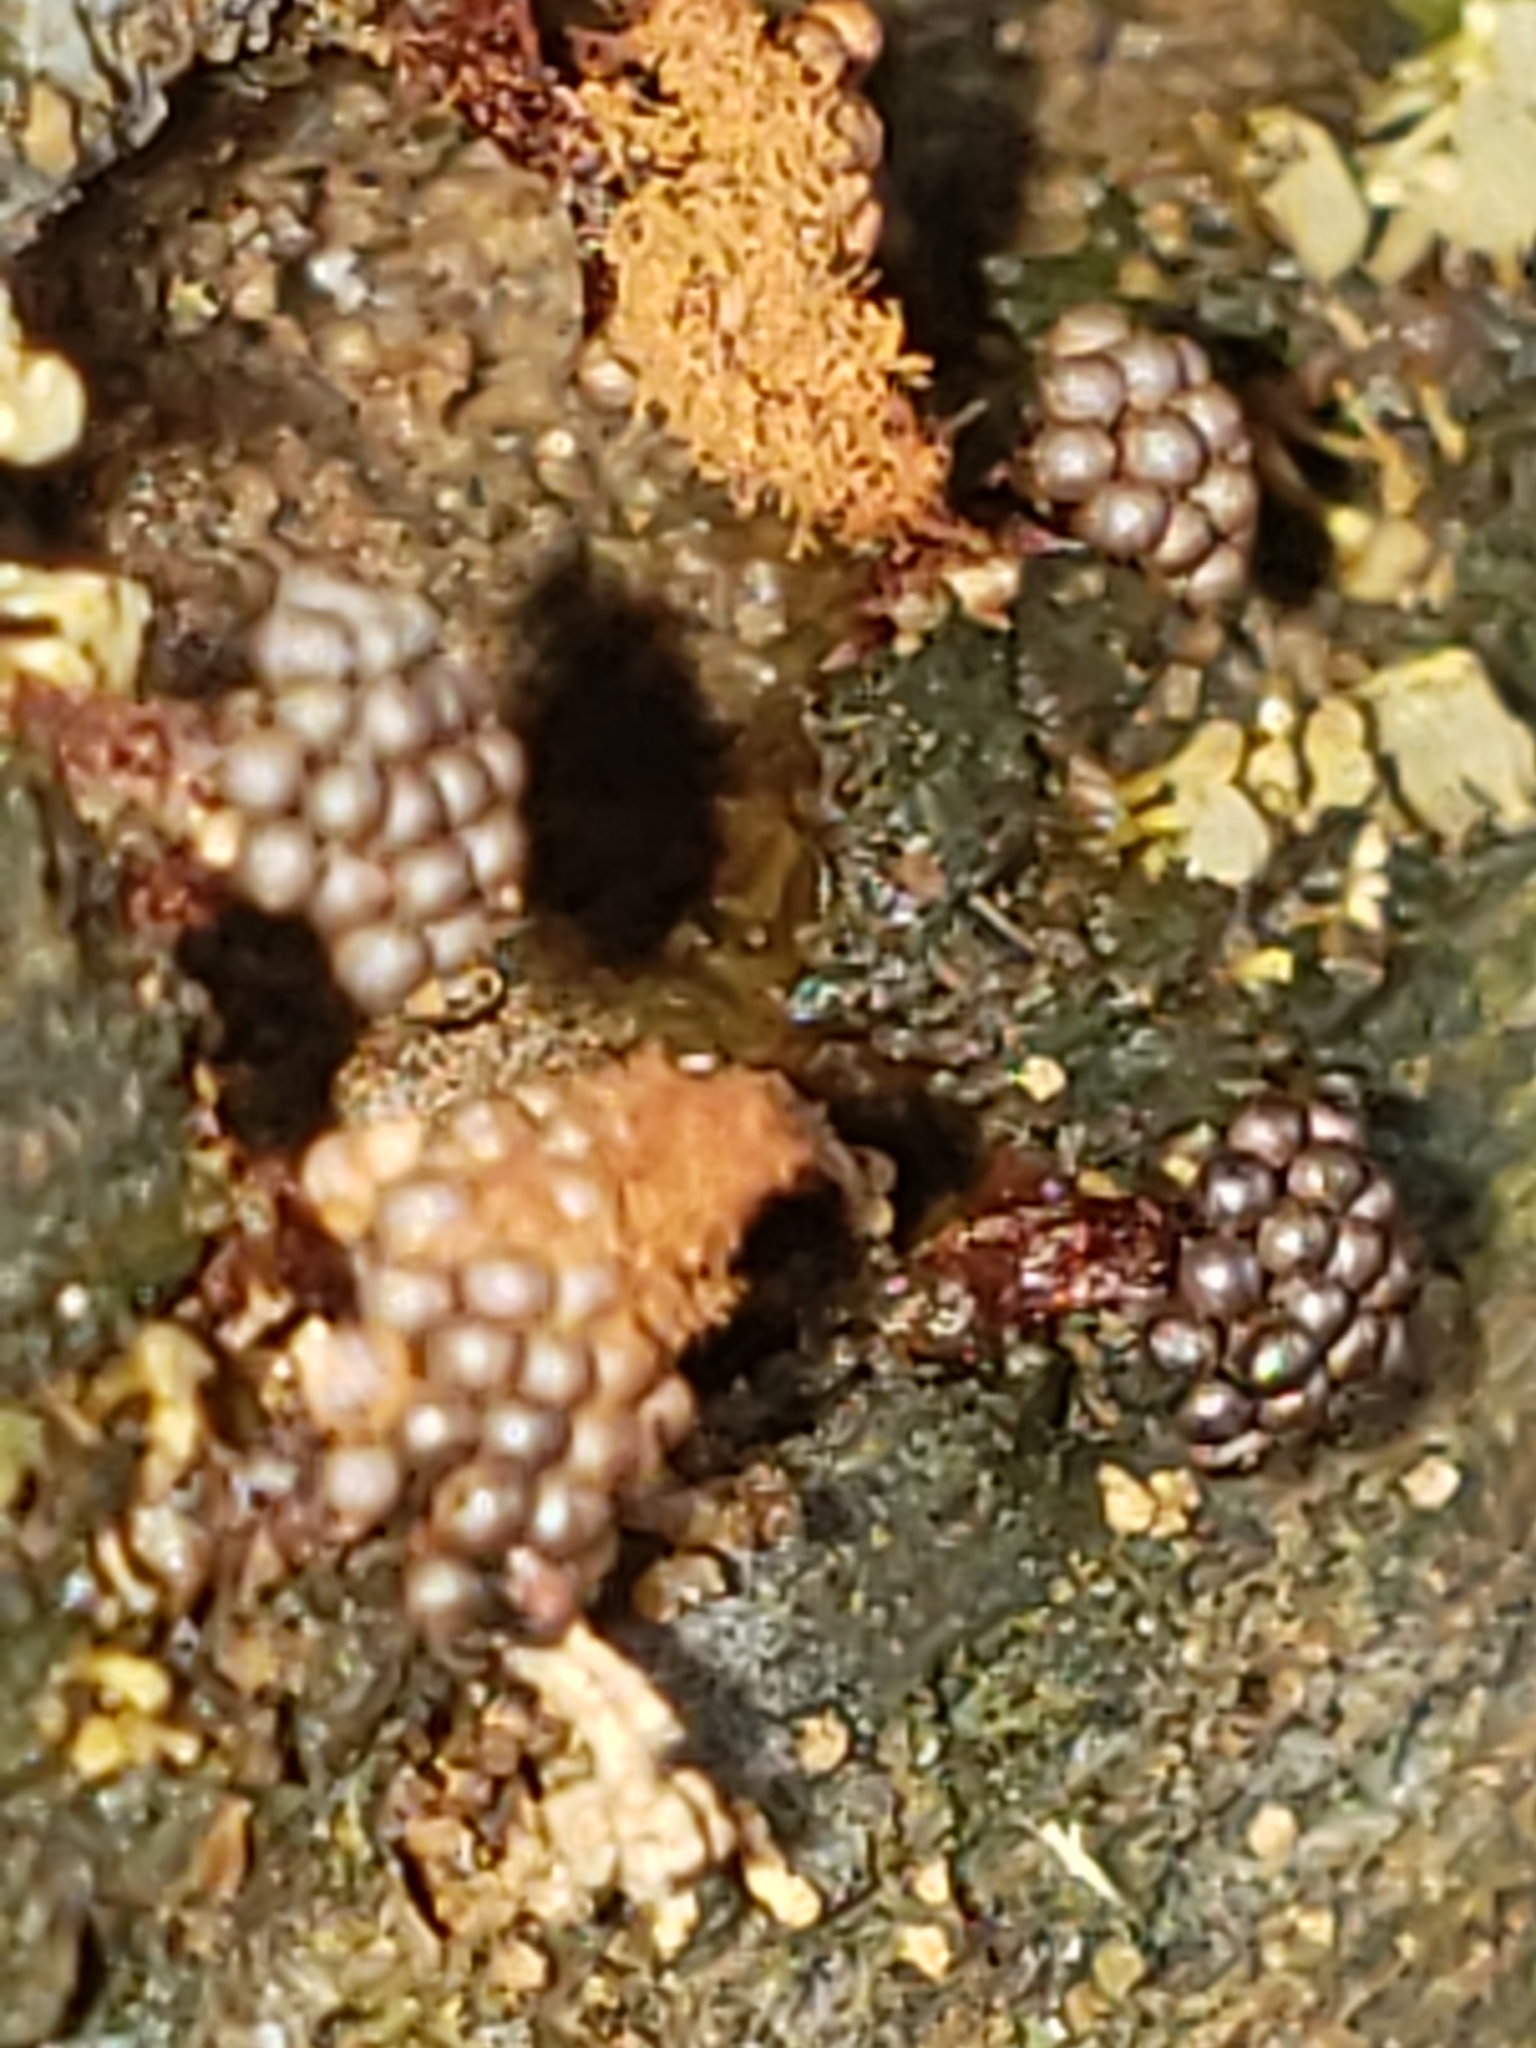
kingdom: Protozoa
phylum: Mycetozoa
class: Myxomycetes
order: Trichiales
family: Trichiaceae
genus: Metatrichia
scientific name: Metatrichia vesparia
